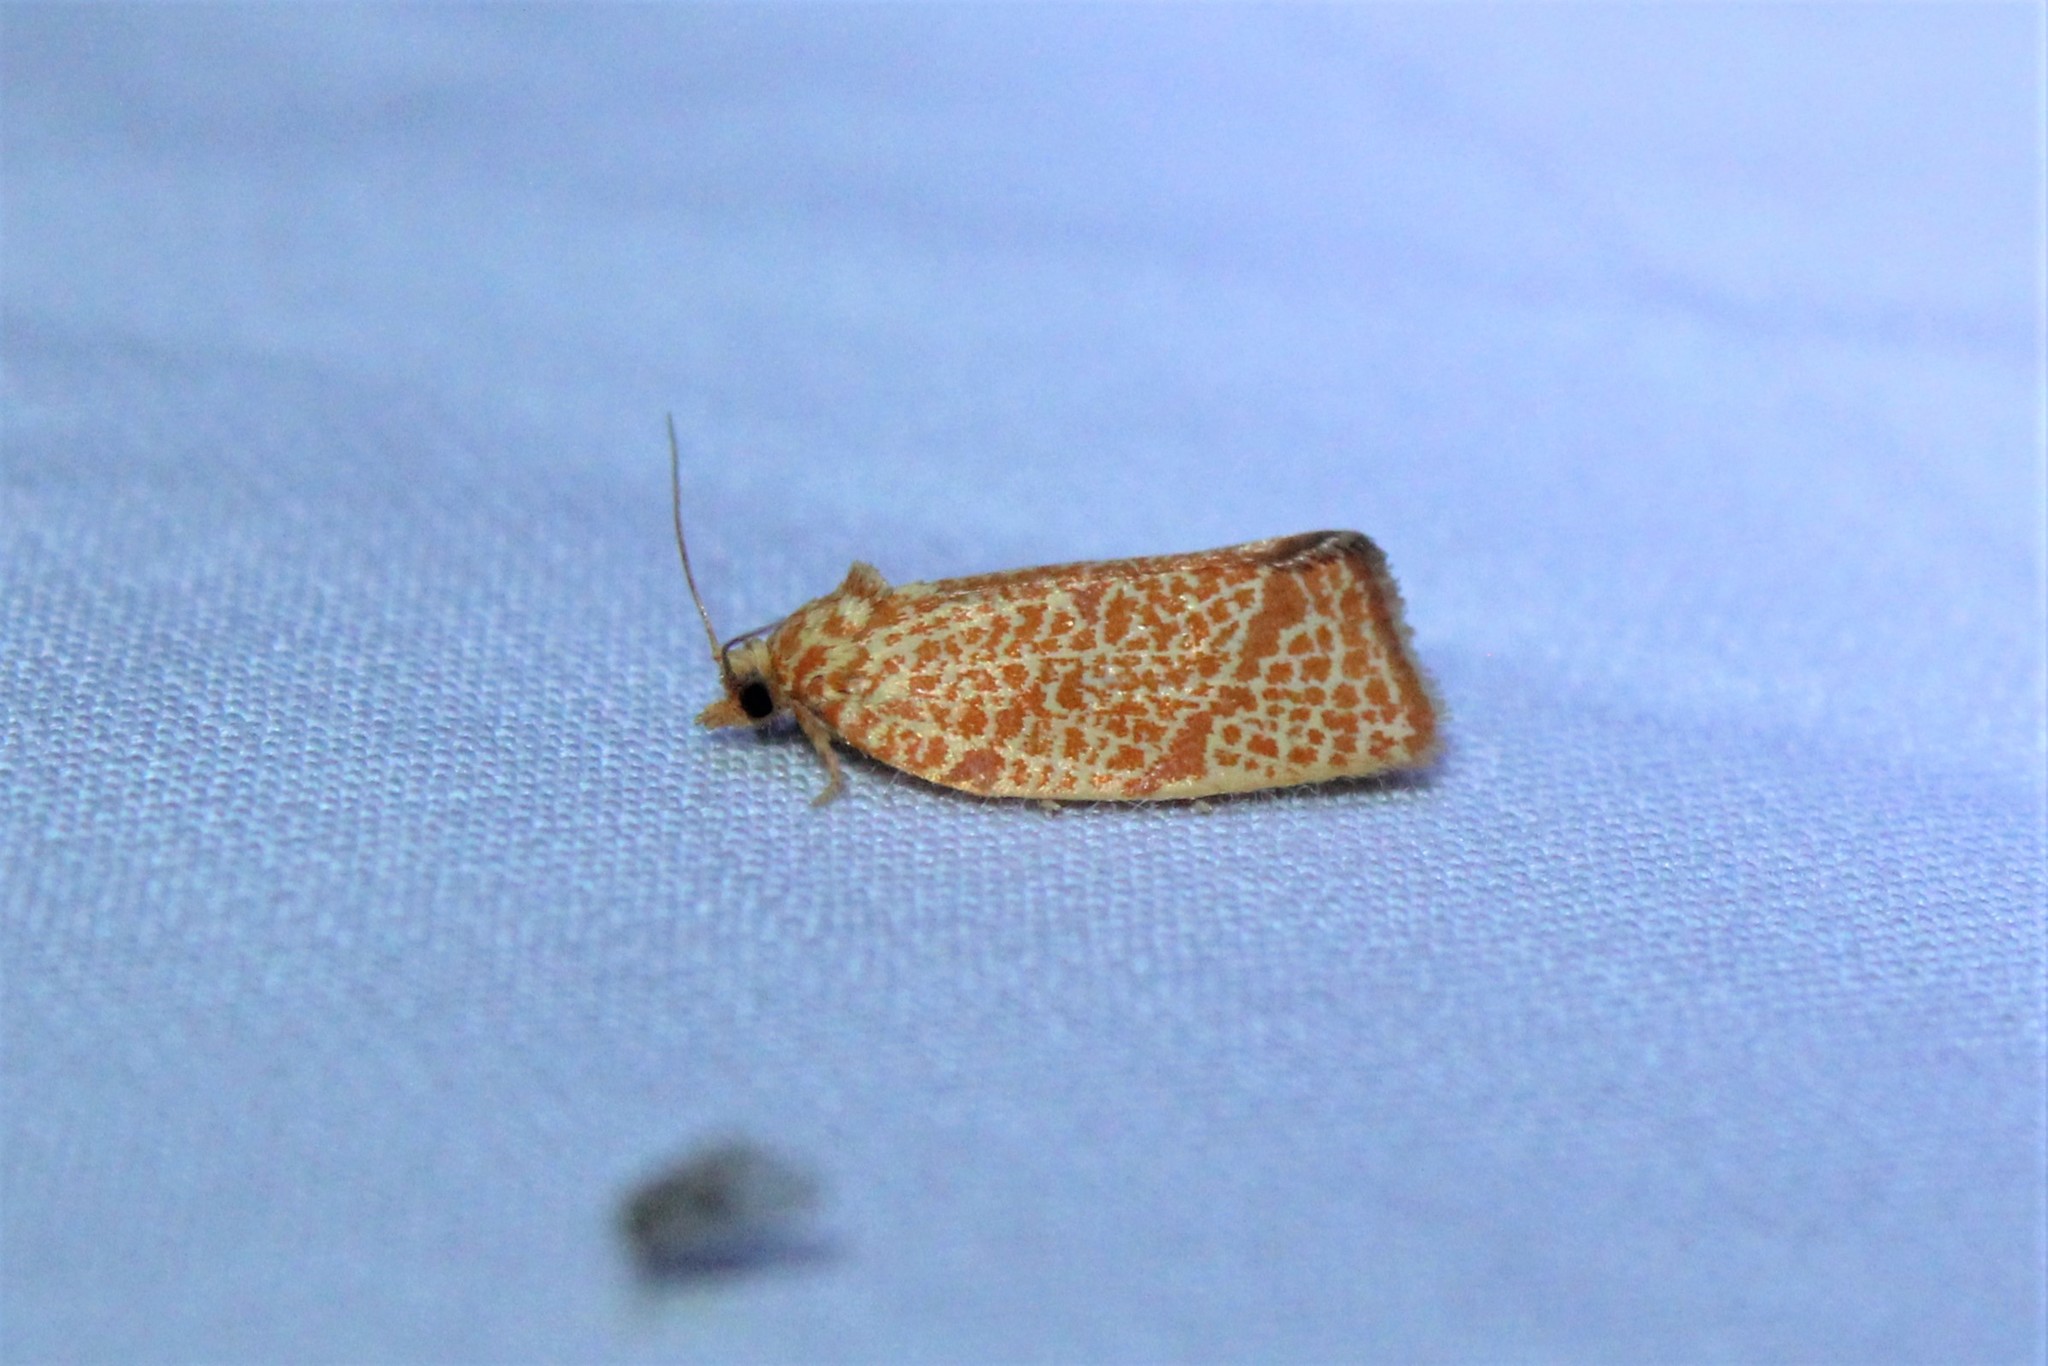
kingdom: Animalia
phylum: Arthropoda
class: Insecta
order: Lepidoptera
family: Tortricidae
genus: Argyrotaenia
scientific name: Argyrotaenia quadrifasciana
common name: Four-lined leafroller moth
